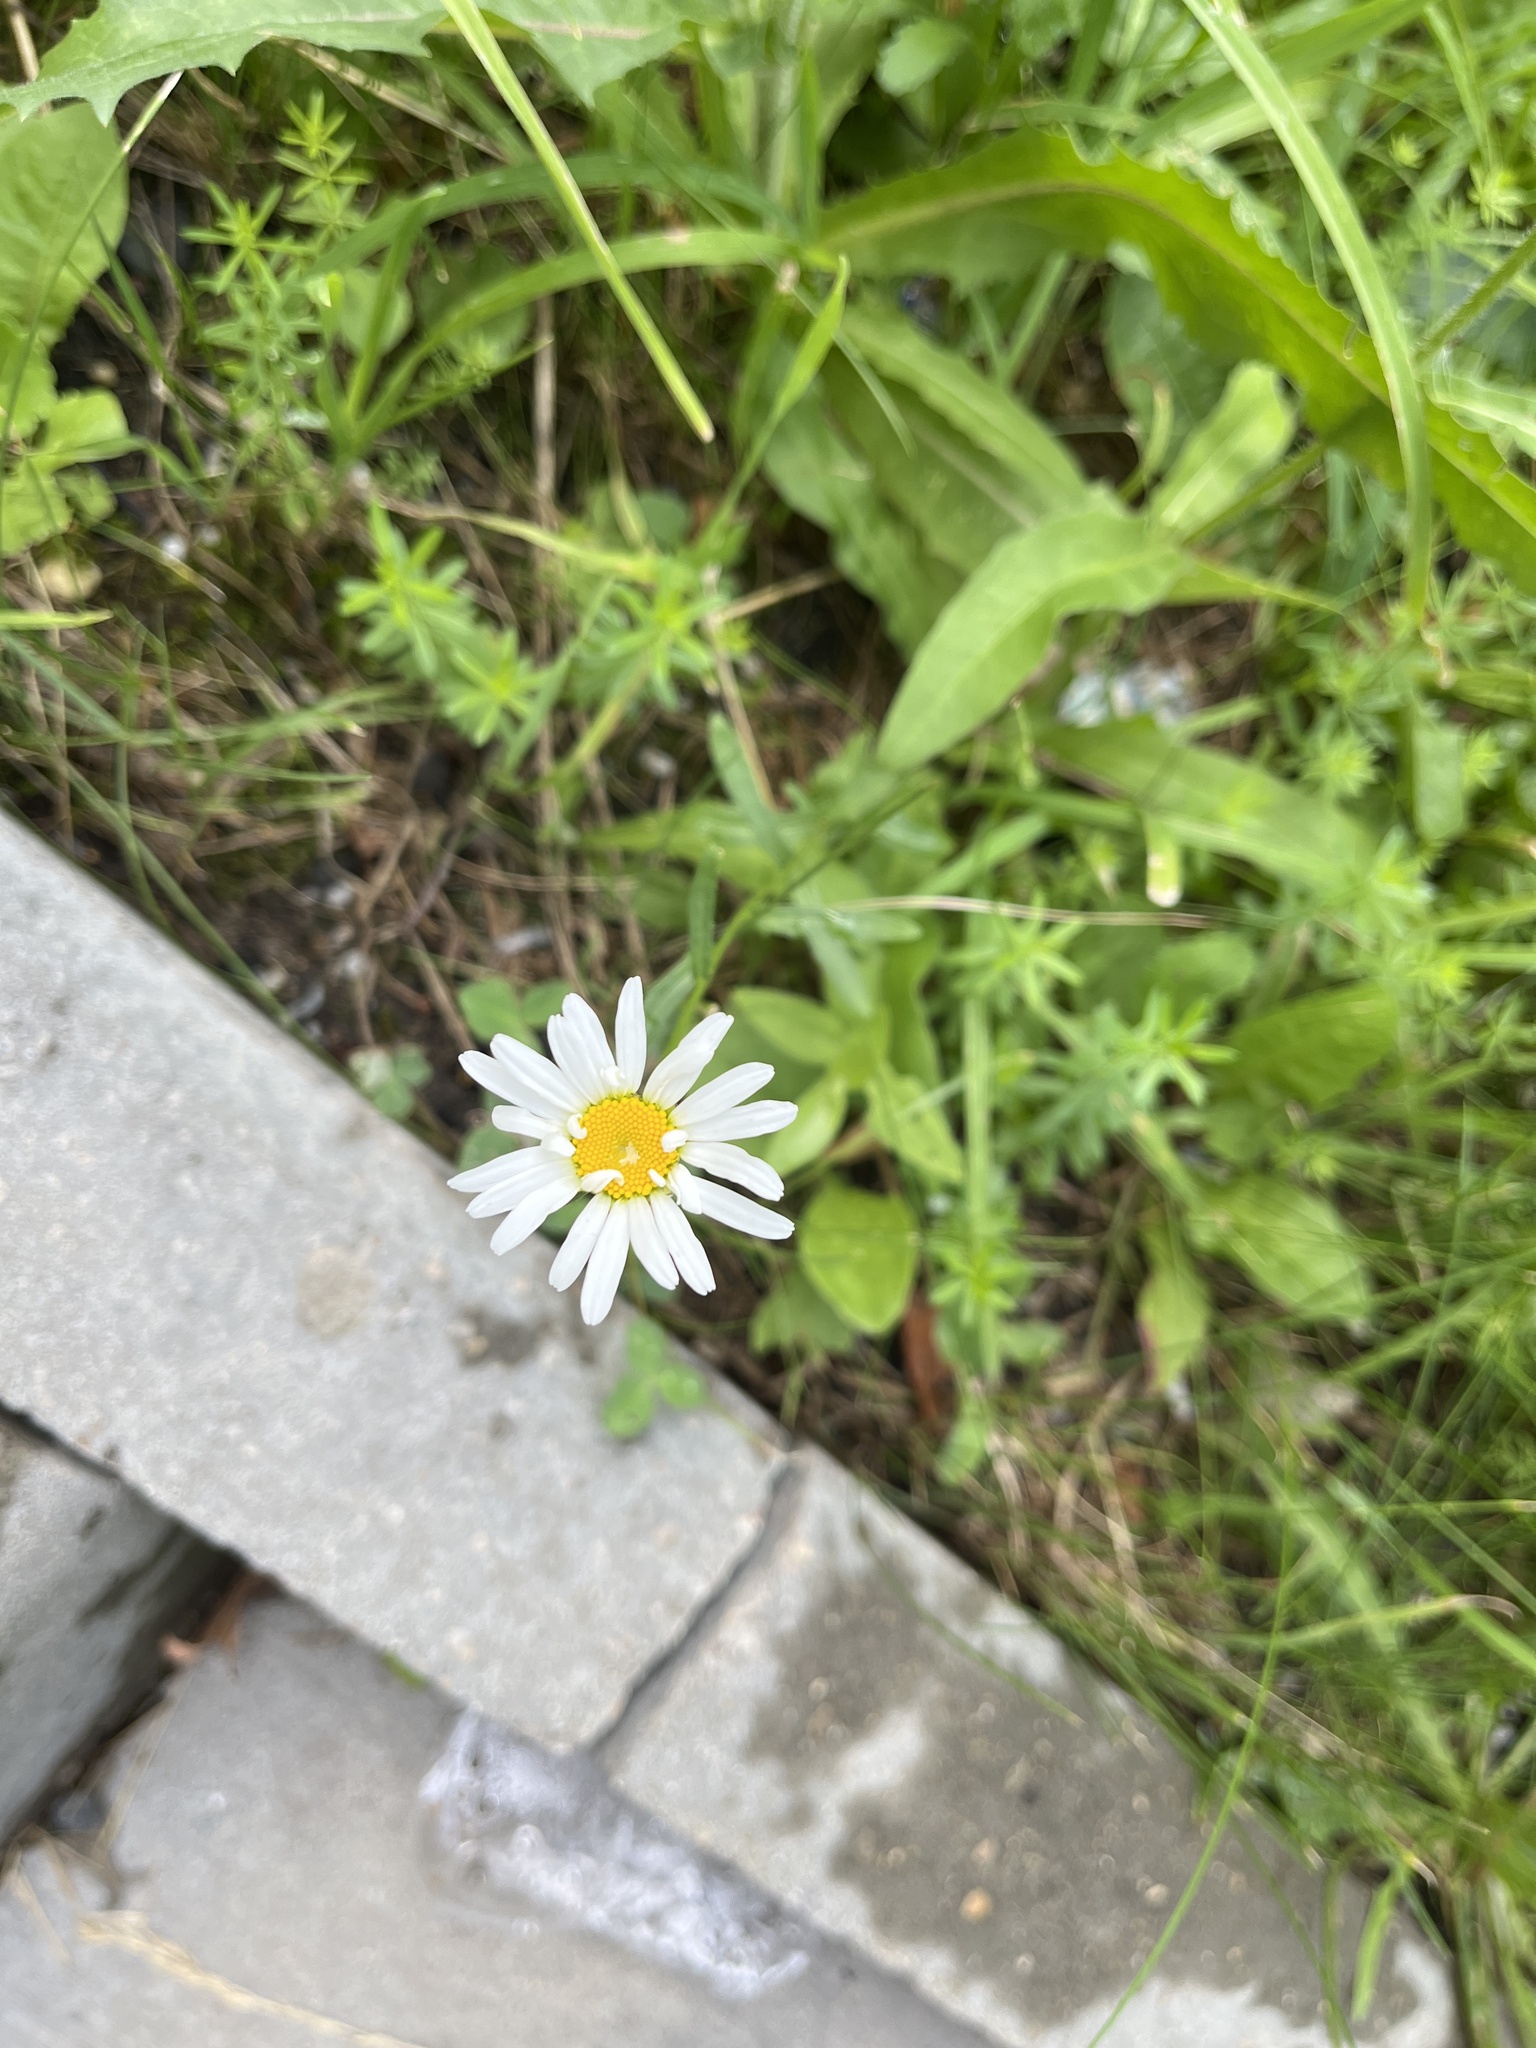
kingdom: Plantae
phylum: Tracheophyta
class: Magnoliopsida
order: Asterales
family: Asteraceae
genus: Leucanthemum
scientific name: Leucanthemum vulgare
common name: Oxeye daisy
